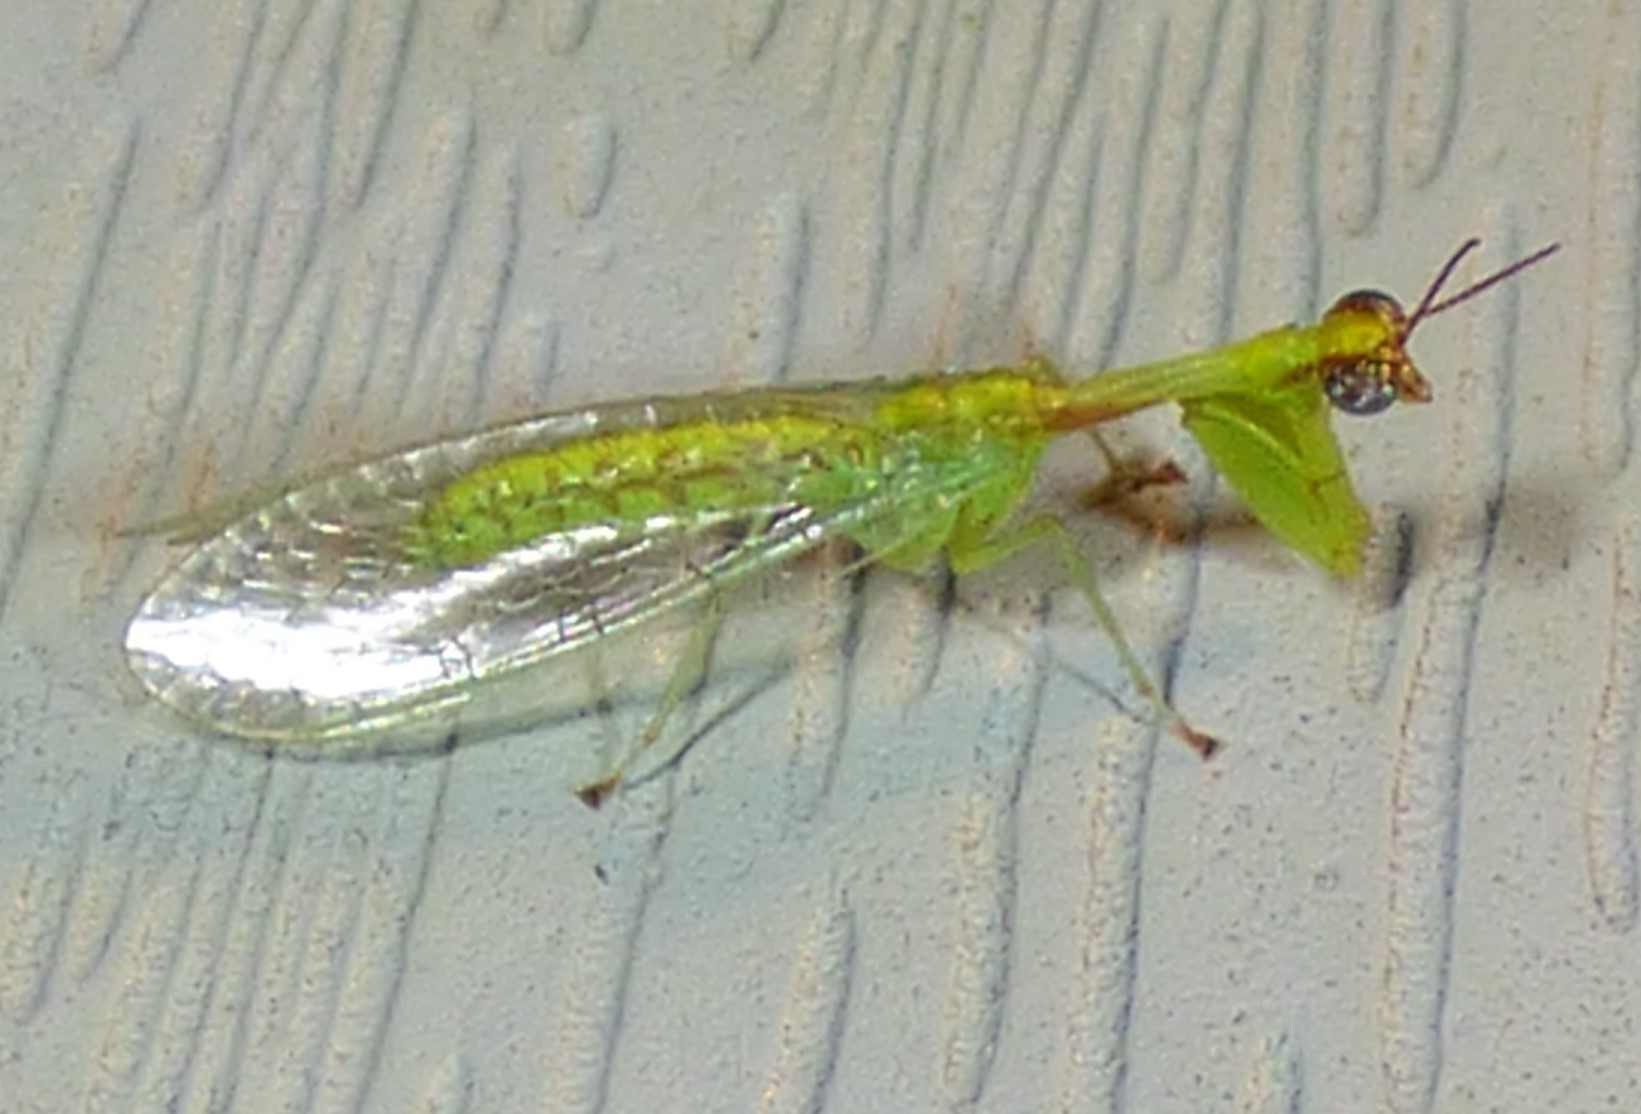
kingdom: Animalia
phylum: Arthropoda
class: Insecta
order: Neuroptera
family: Mantispidae
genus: Zeugomantispa
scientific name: Zeugomantispa minuta
